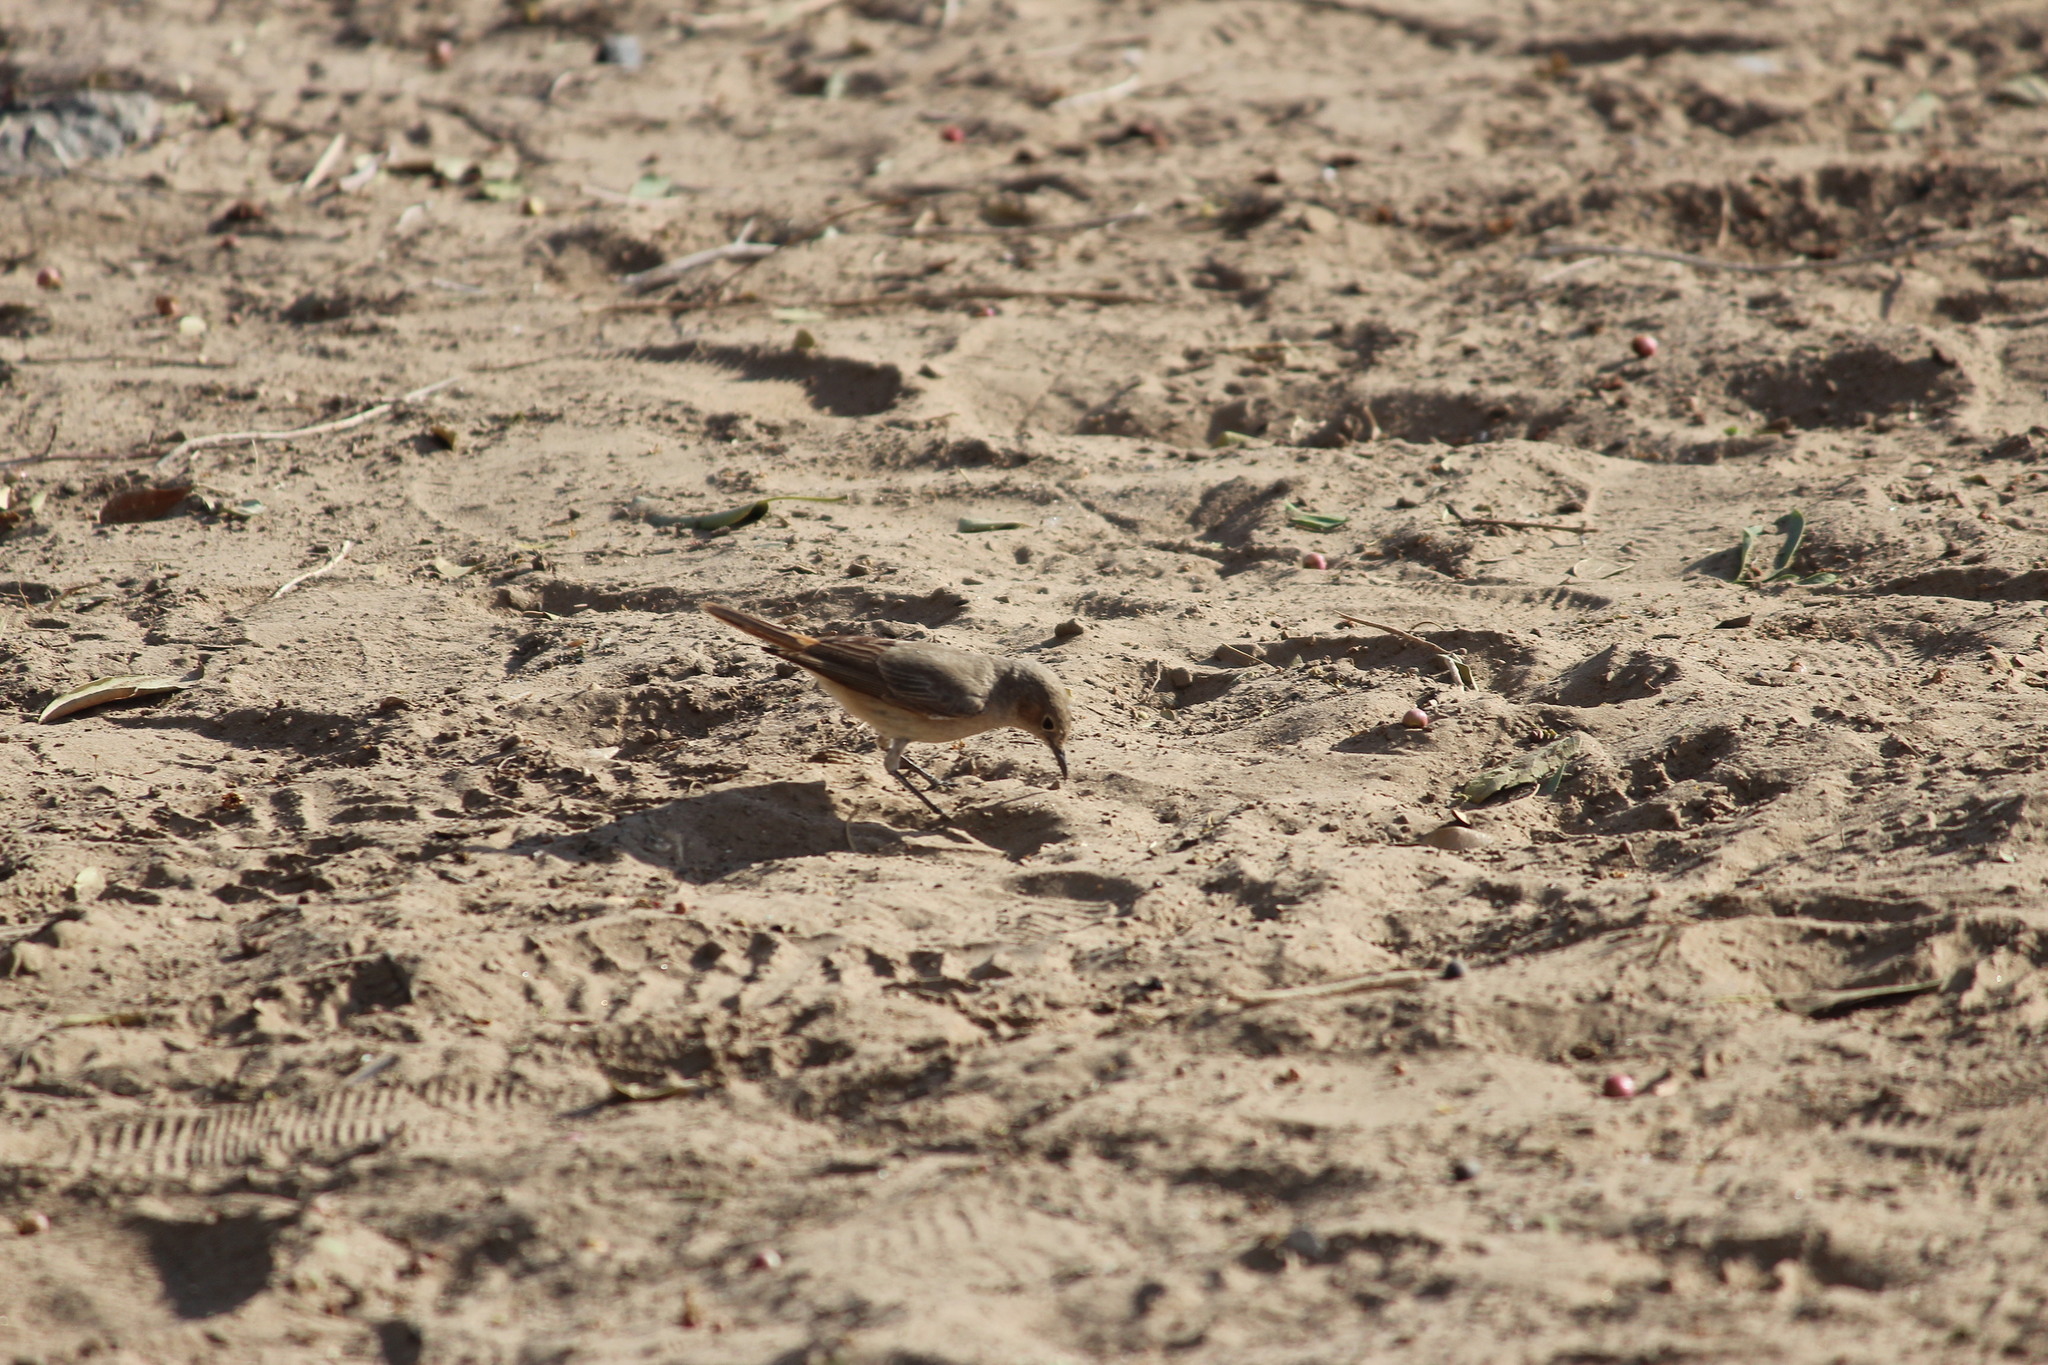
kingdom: Animalia
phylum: Chordata
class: Aves
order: Passeriformes
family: Muscicapidae
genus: Oenanthe
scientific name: Oenanthe familiaris
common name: Familiar chat
